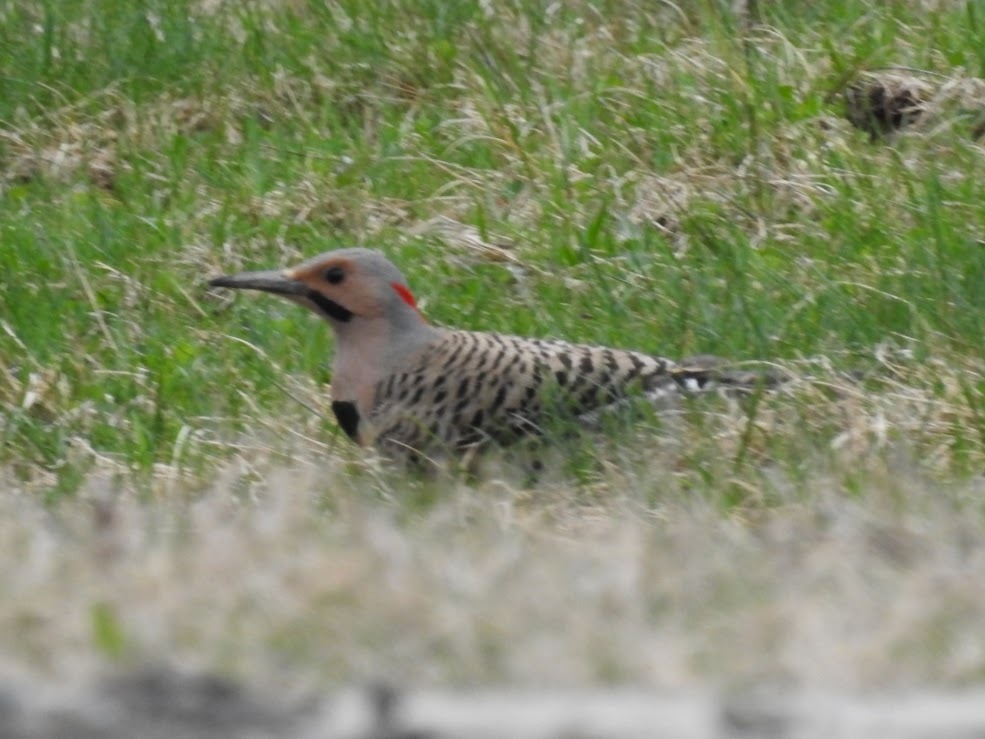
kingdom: Animalia
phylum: Chordata
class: Aves
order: Piciformes
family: Picidae
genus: Colaptes
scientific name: Colaptes auratus
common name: Northern flicker
